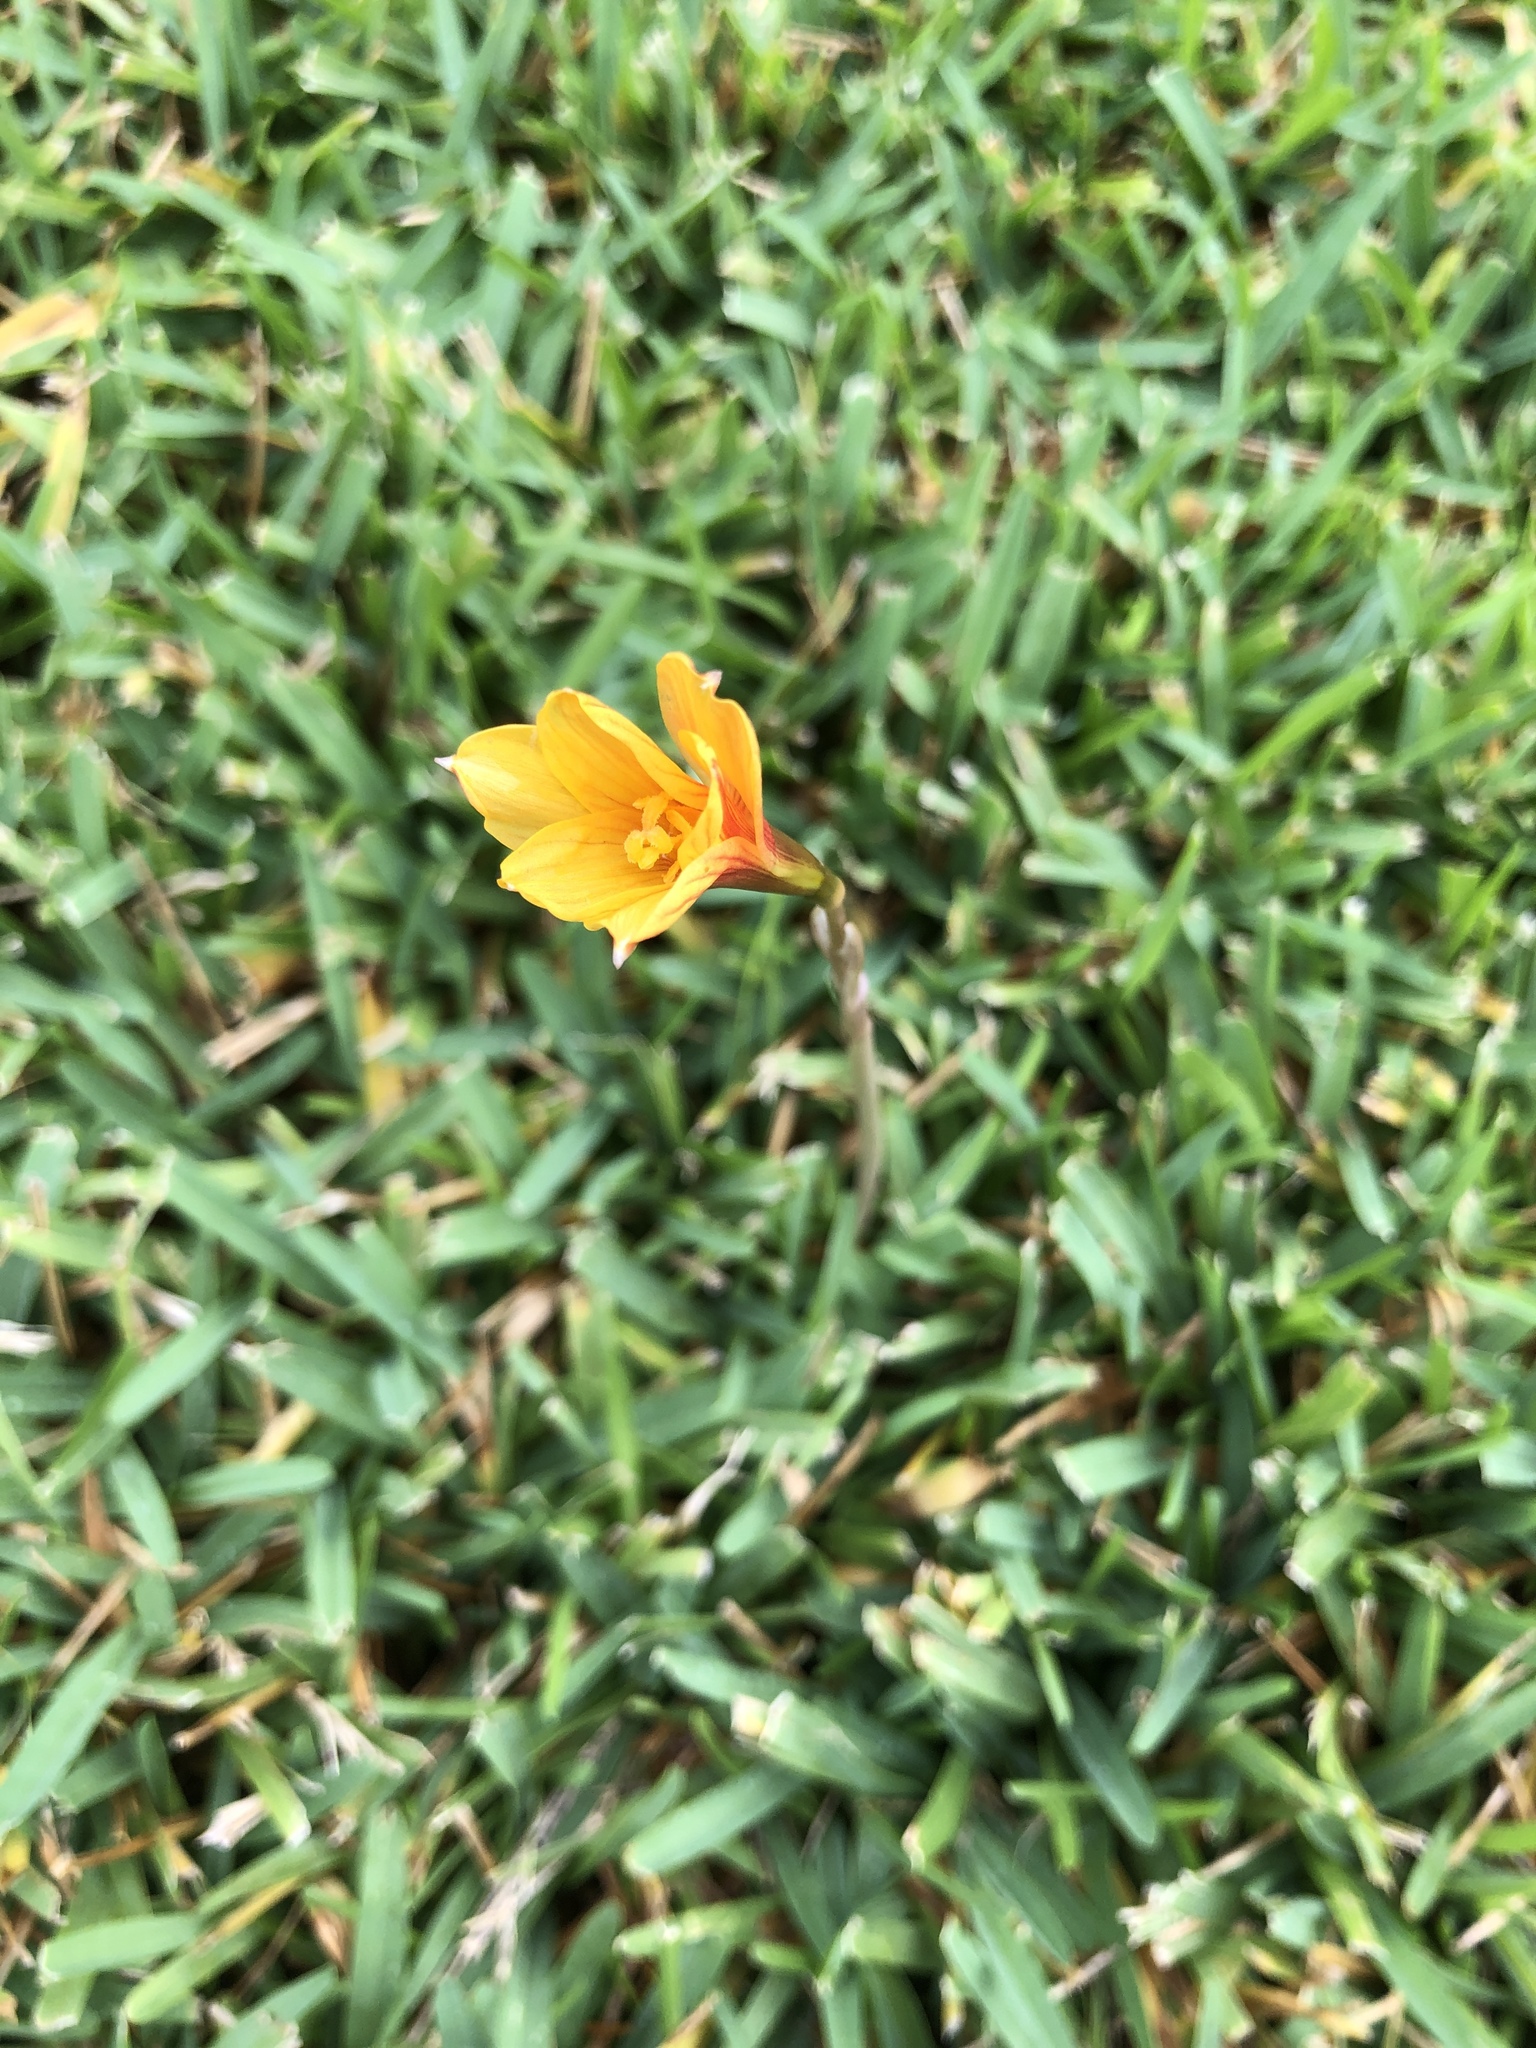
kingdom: Plantae
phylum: Tracheophyta
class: Liliopsida
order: Asparagales
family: Amaryllidaceae
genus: Zephyranthes
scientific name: Zephyranthes tubispatha
